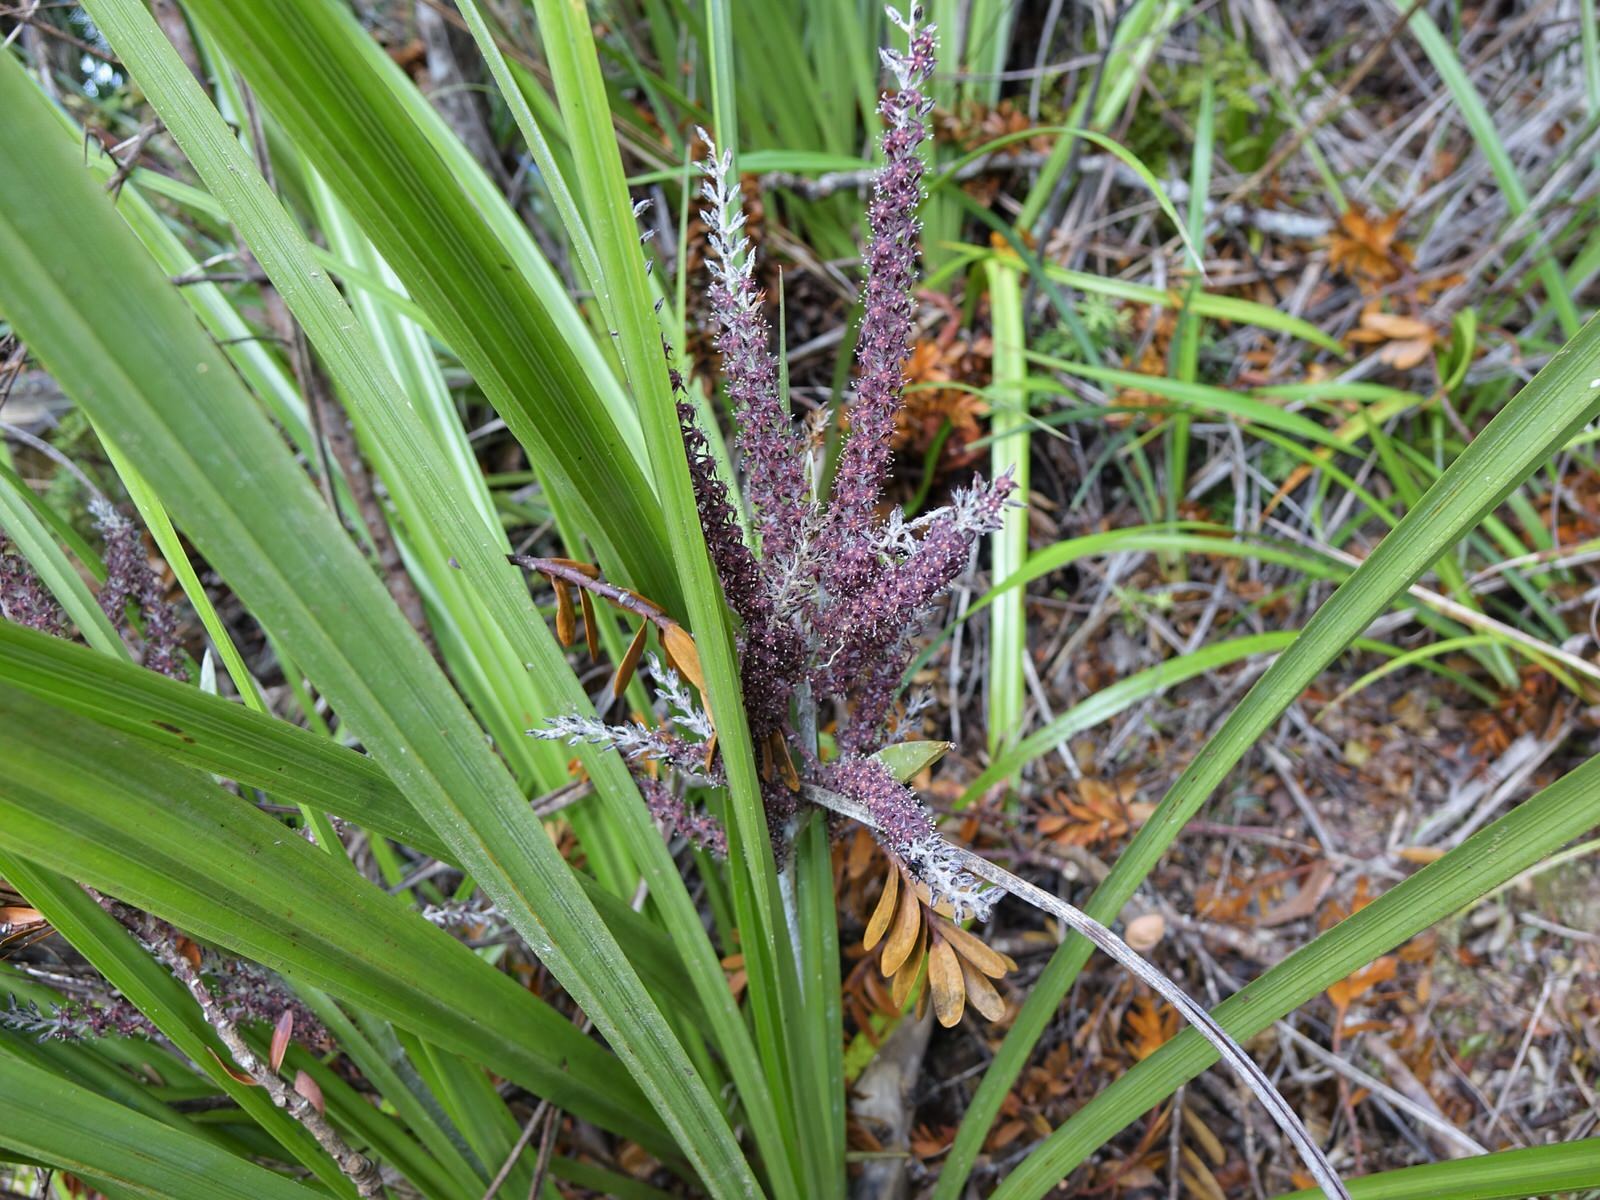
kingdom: Plantae
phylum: Tracheophyta
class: Liliopsida
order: Asparagales
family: Asteliaceae
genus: Astelia
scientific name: Astelia trinervia
